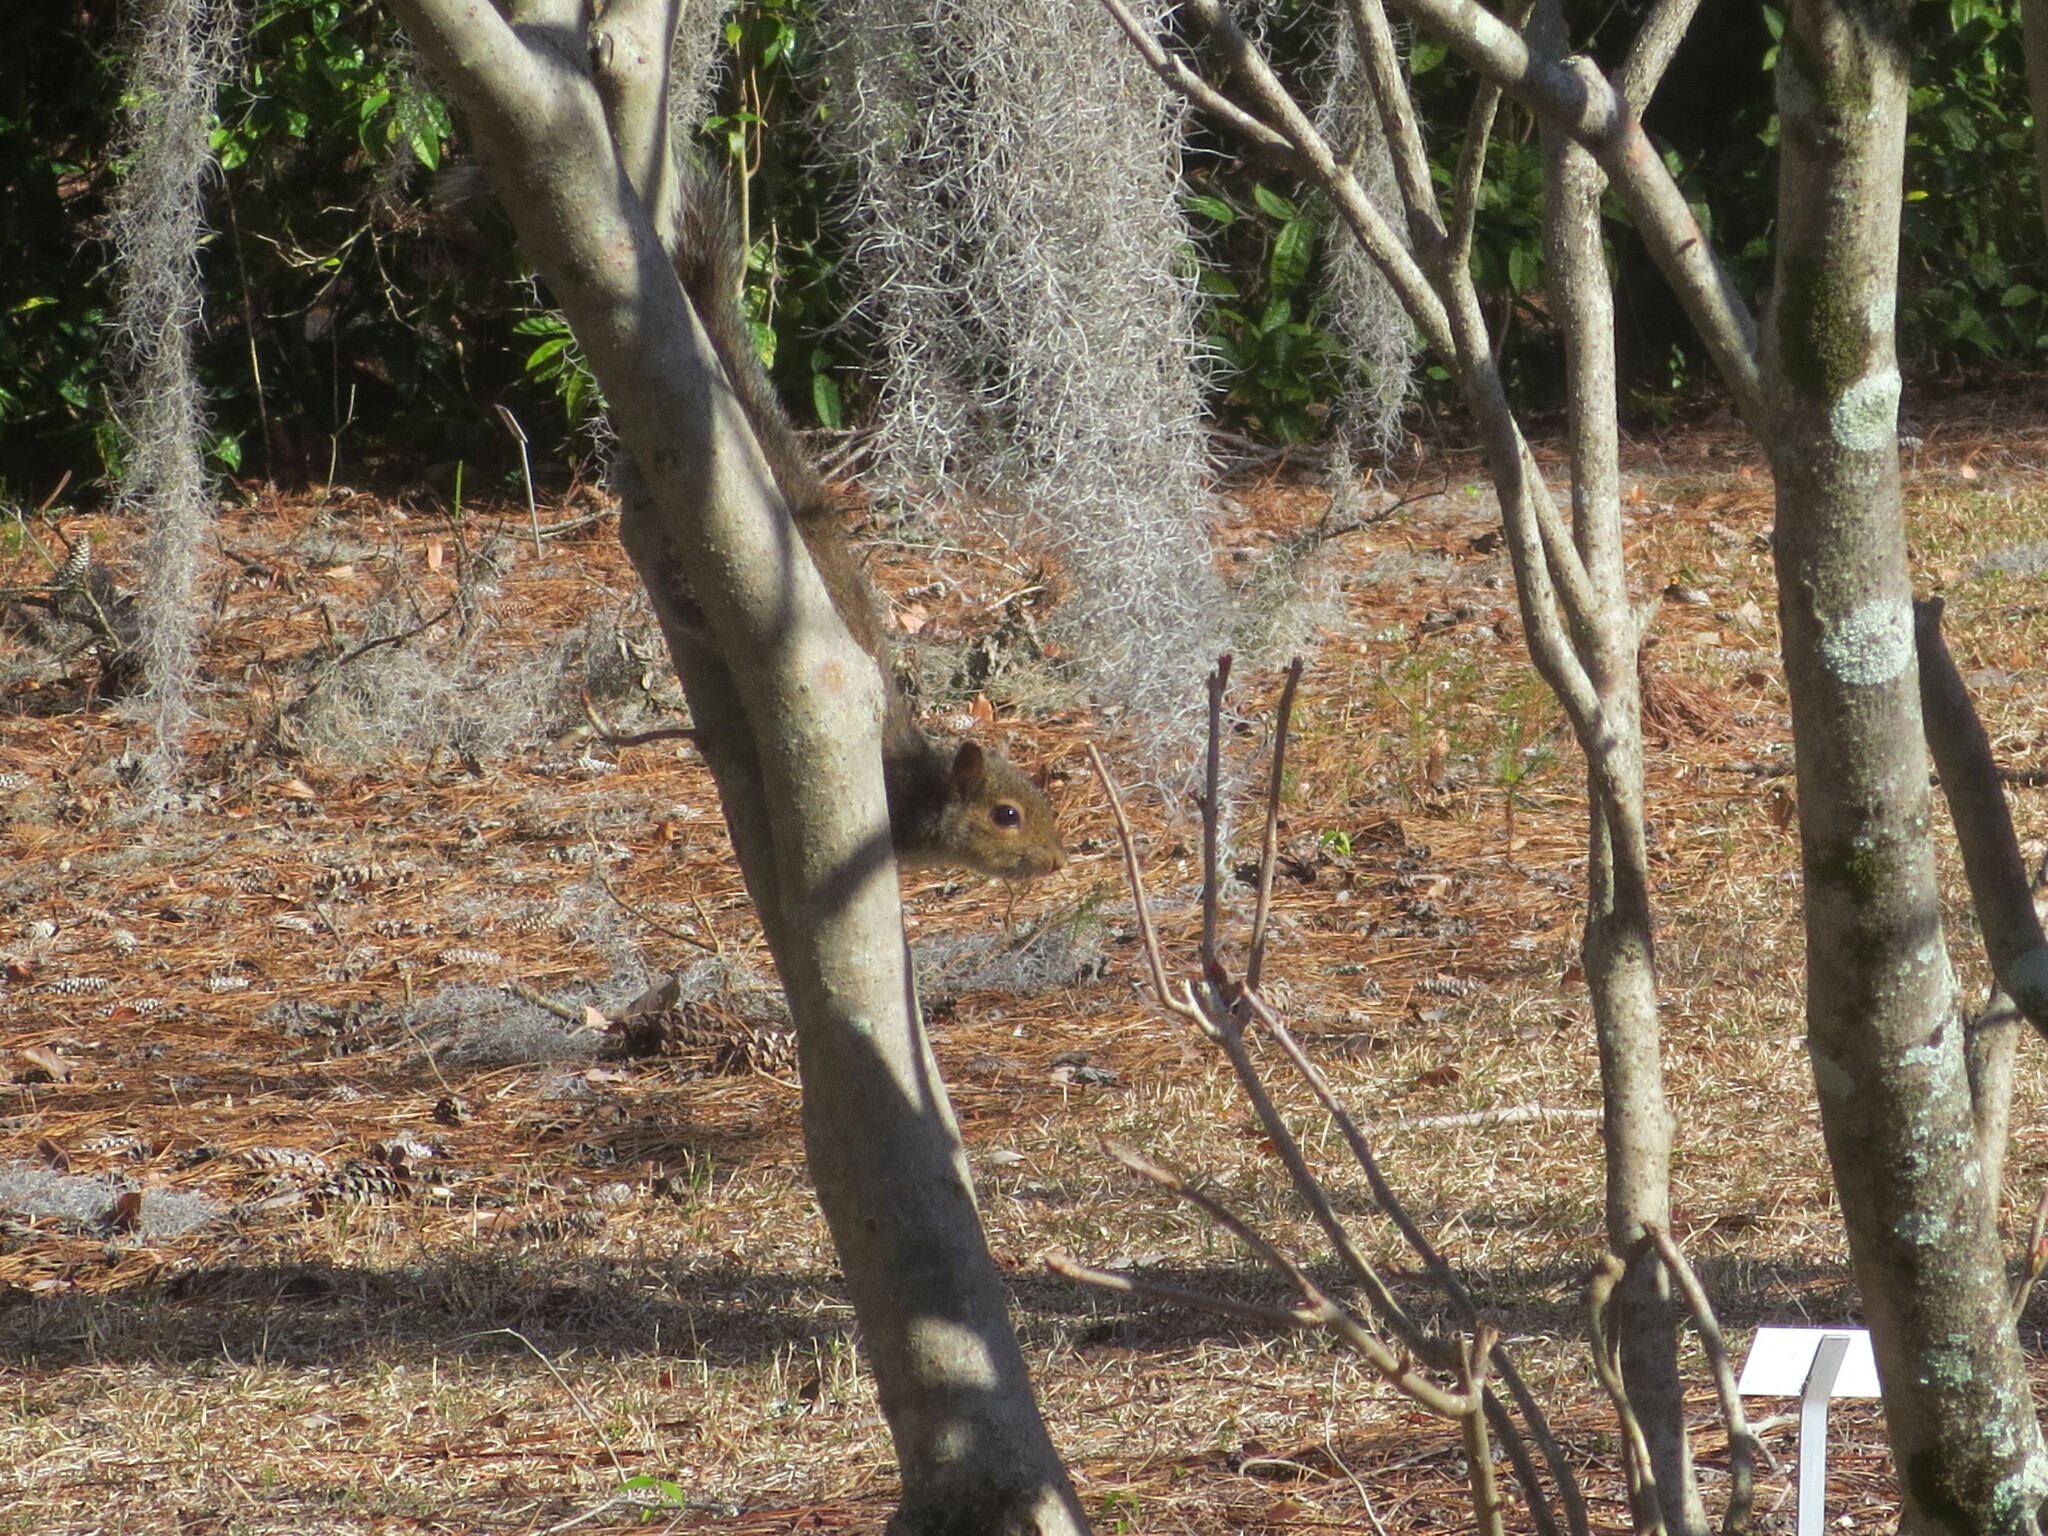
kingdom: Animalia
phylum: Chordata
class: Mammalia
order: Rodentia
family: Sciuridae
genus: Sciurus
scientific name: Sciurus carolinensis
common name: Eastern gray squirrel
